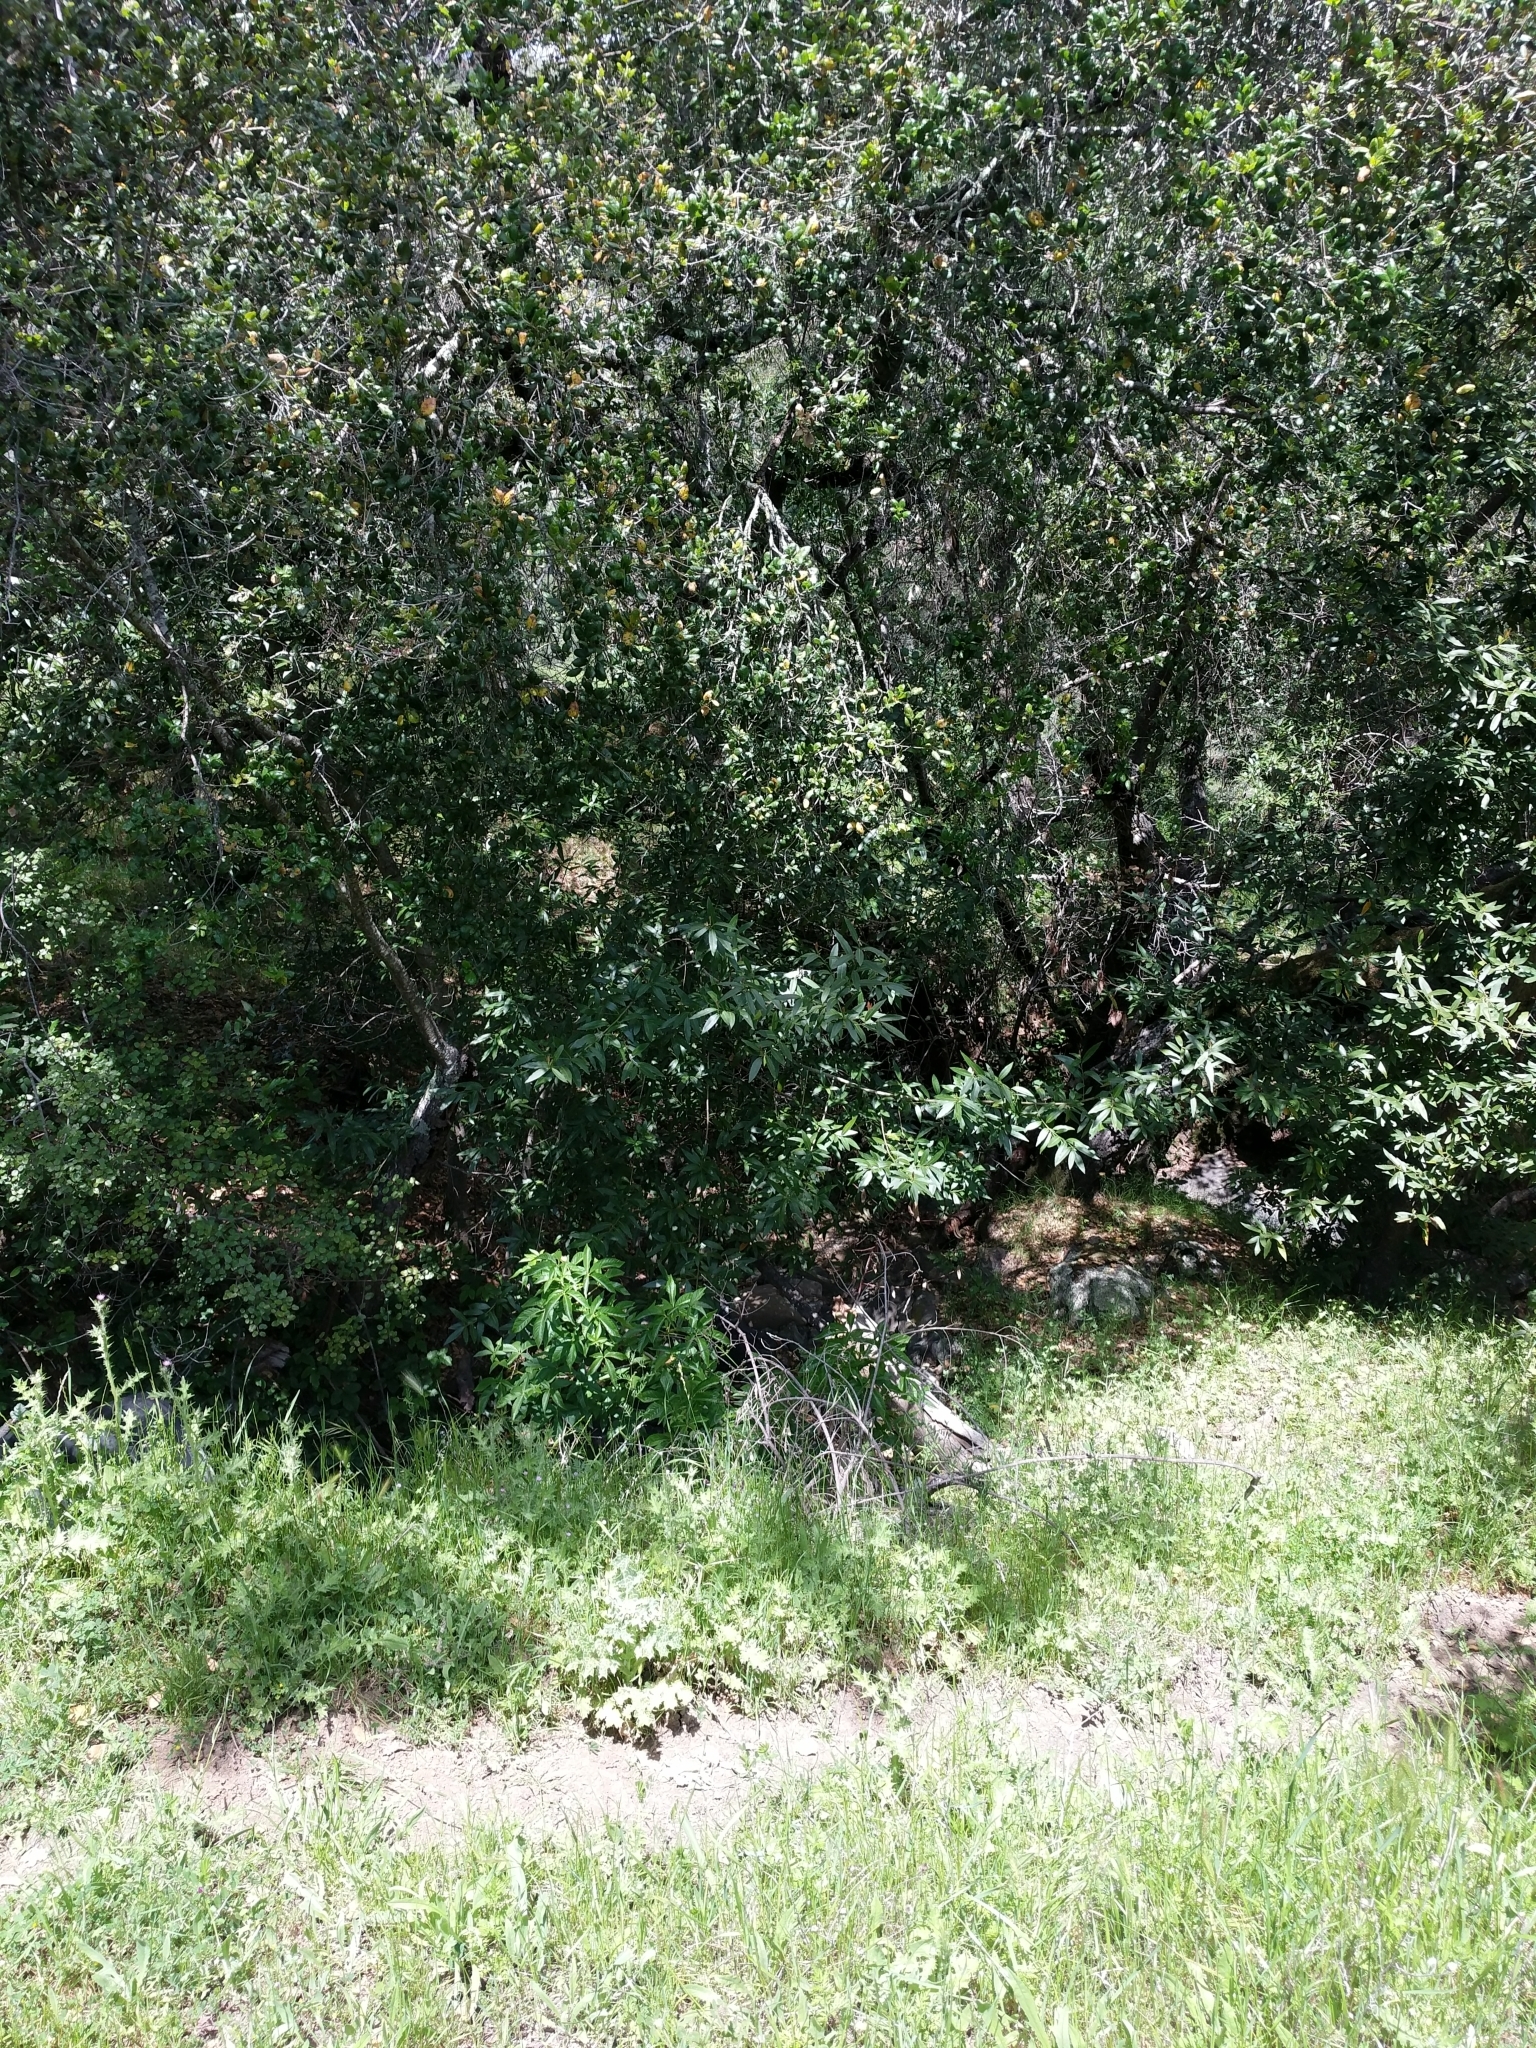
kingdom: Plantae
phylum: Tracheophyta
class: Magnoliopsida
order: Laurales
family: Lauraceae
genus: Umbellularia
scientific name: Umbellularia californica
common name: California bay
